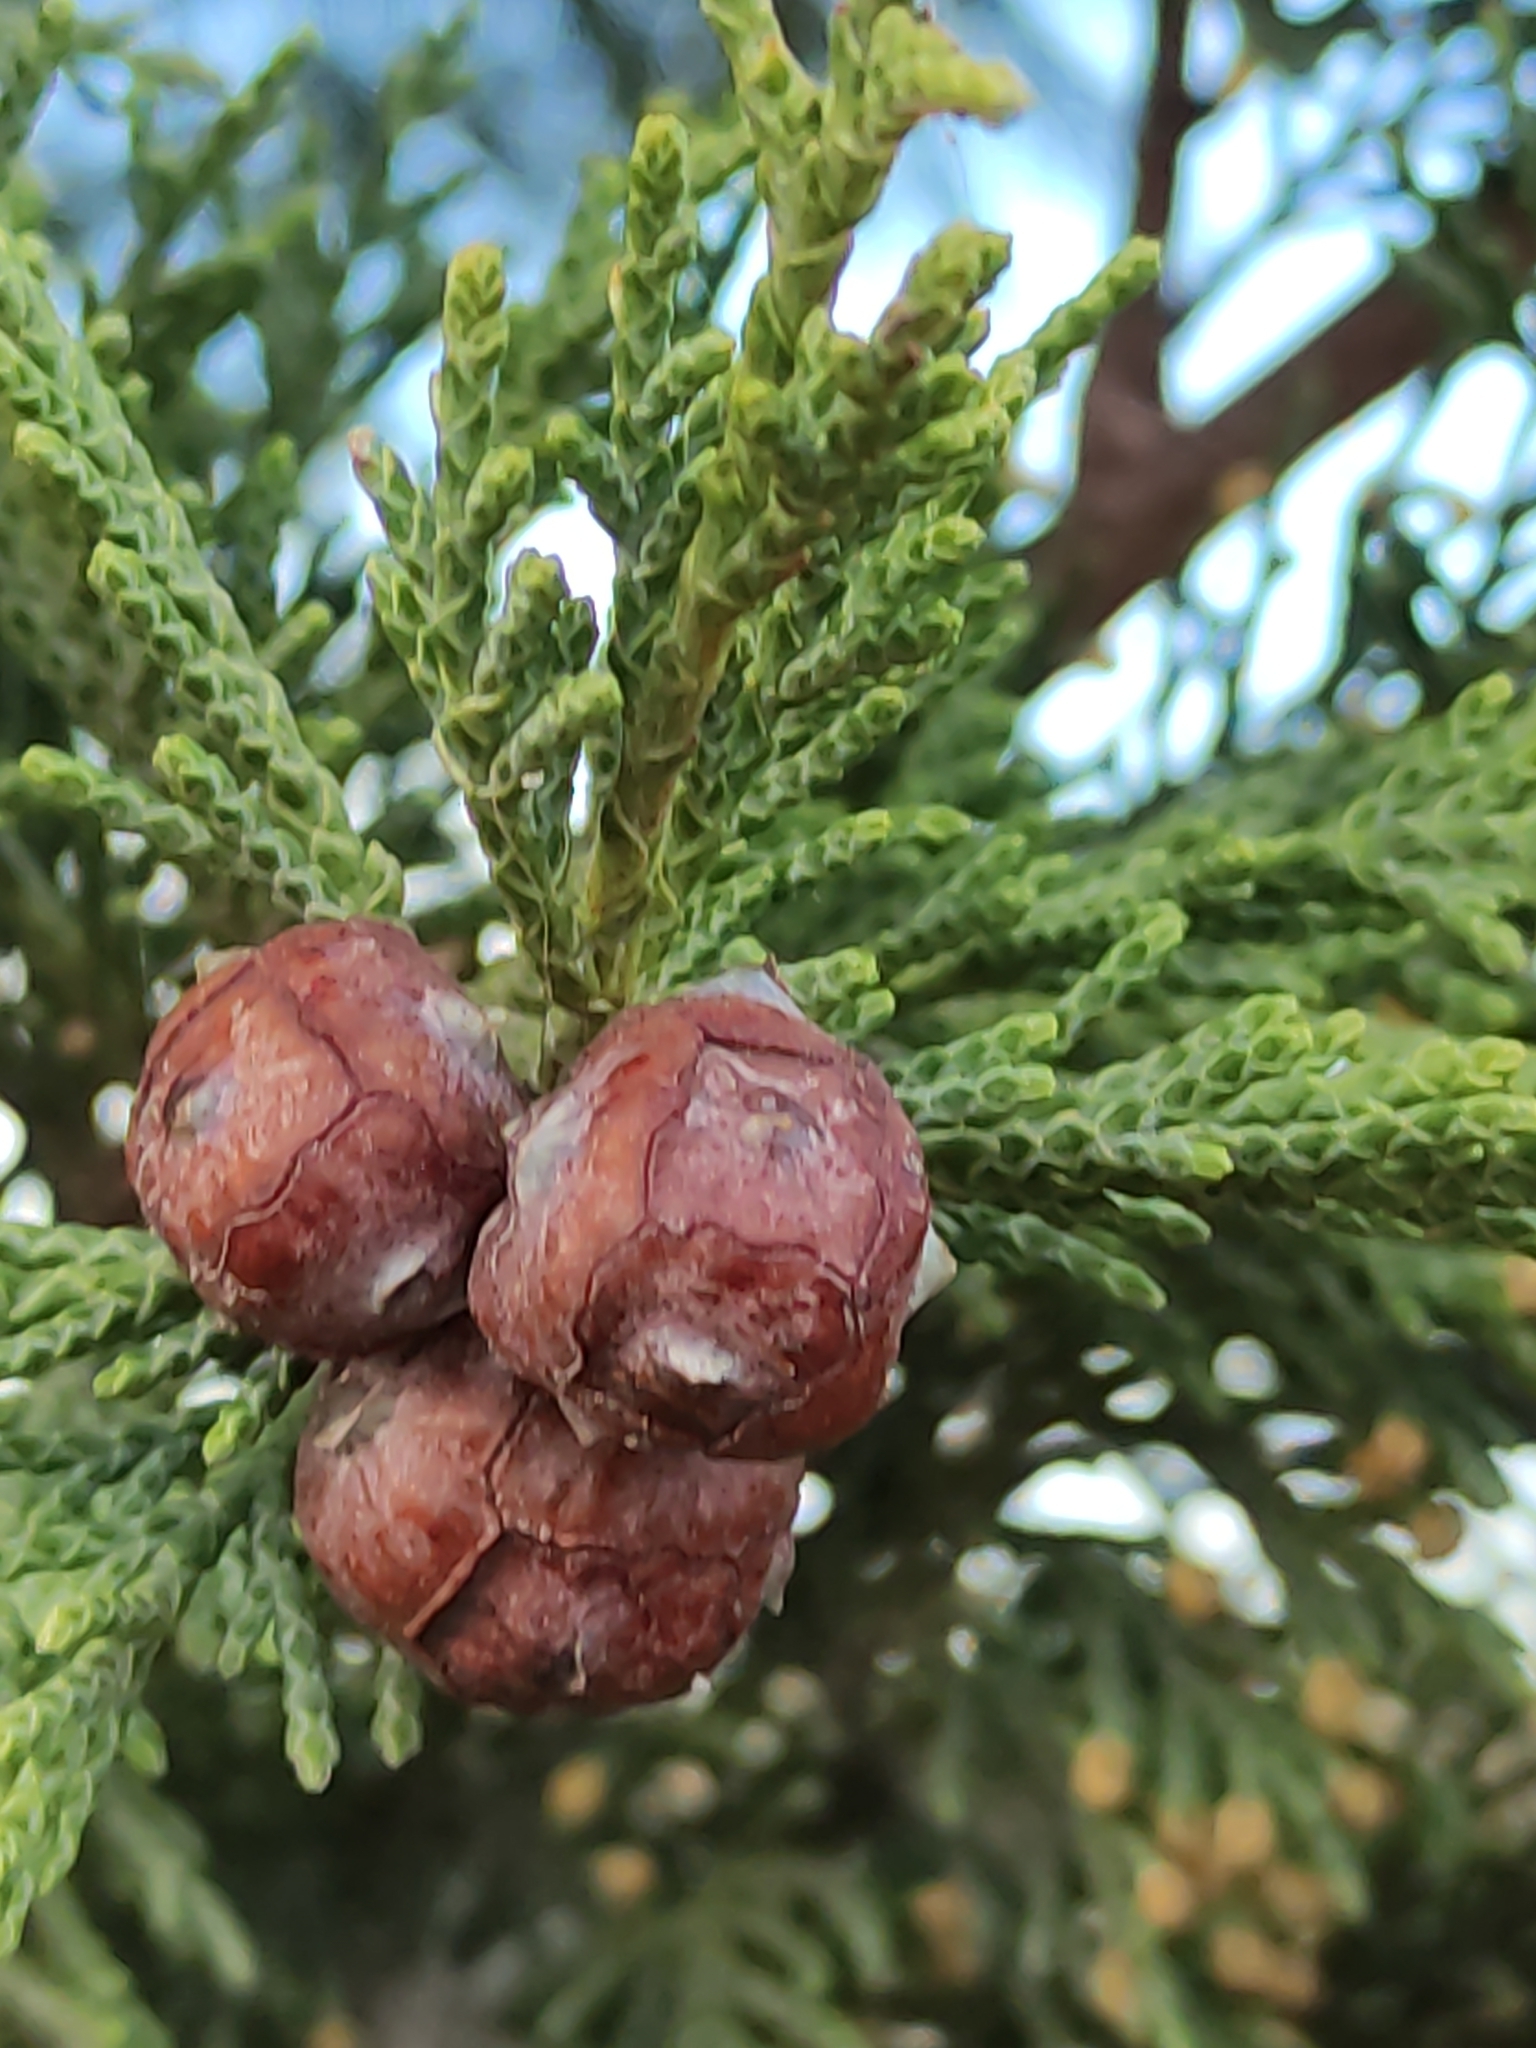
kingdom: Plantae
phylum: Tracheophyta
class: Pinopsida
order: Pinales
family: Cupressaceae
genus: Cupressus
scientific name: Cupressus macrocarpa
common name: Monterey cypress
